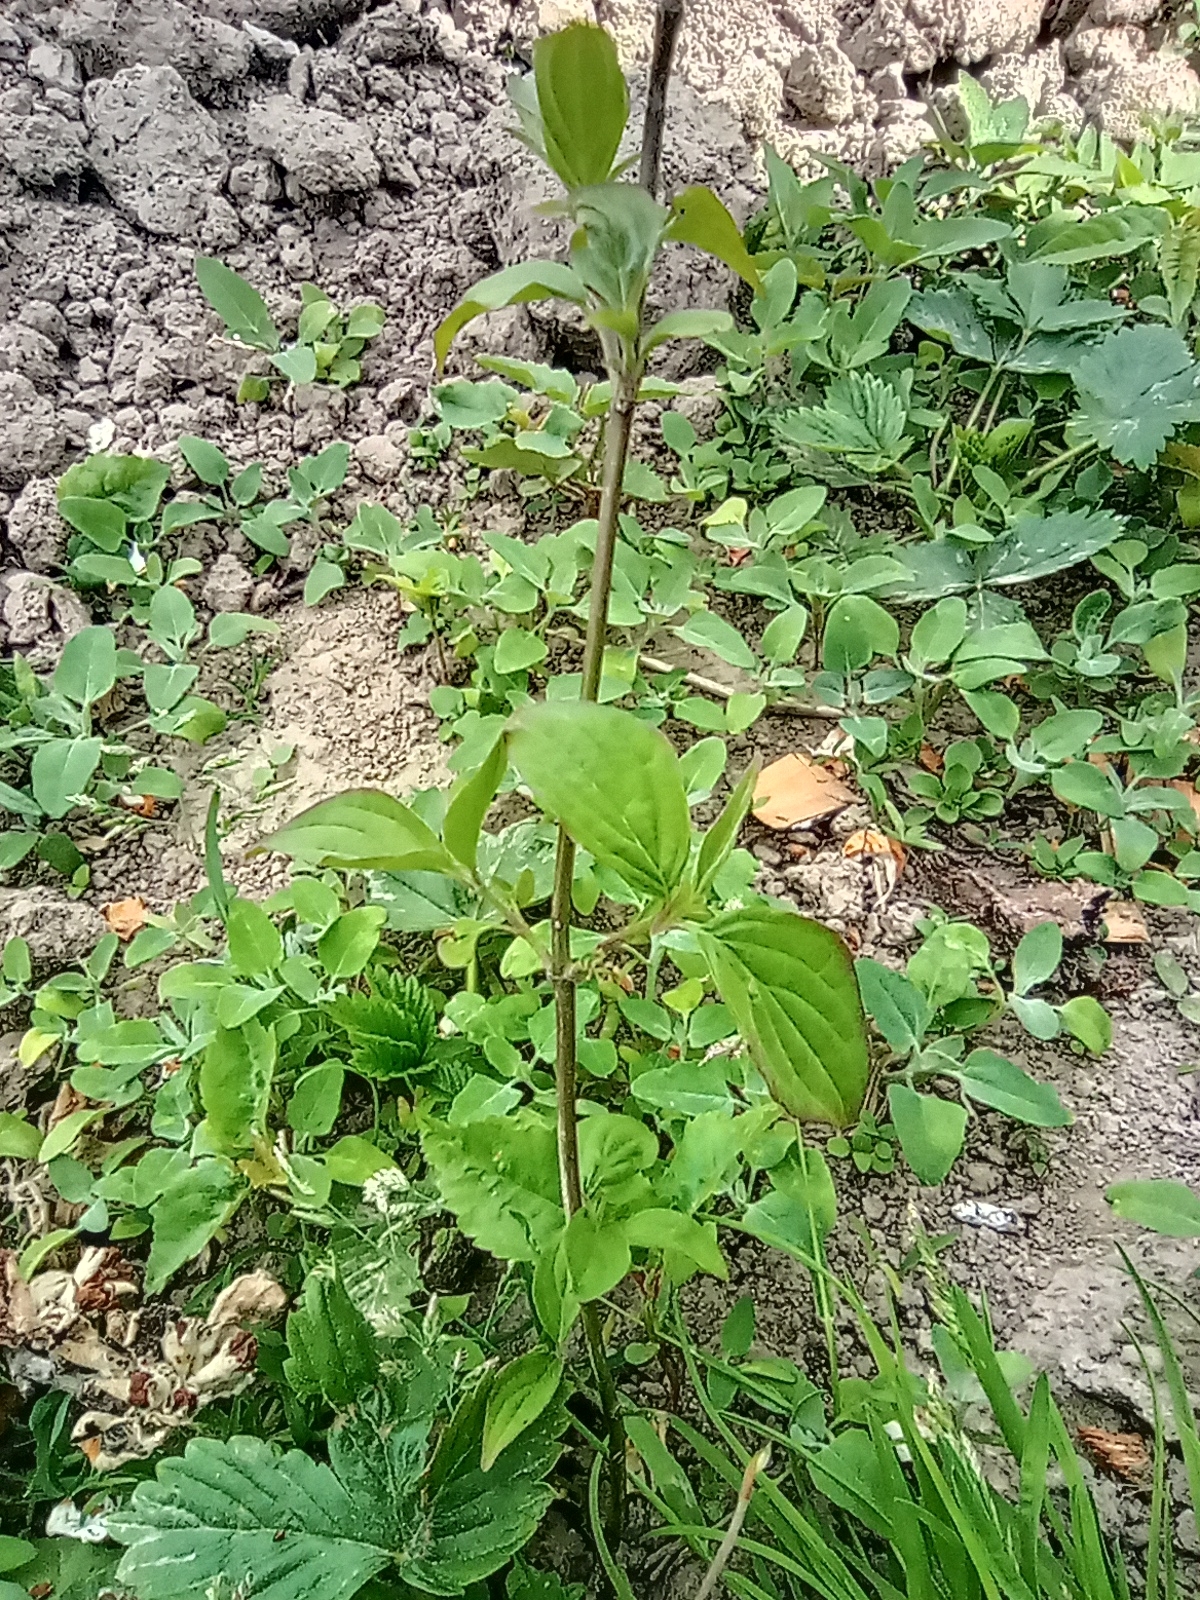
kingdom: Plantae
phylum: Tracheophyta
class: Magnoliopsida
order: Cornales
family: Cornaceae
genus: Cornus
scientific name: Cornus sanguinea
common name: Dogwood
